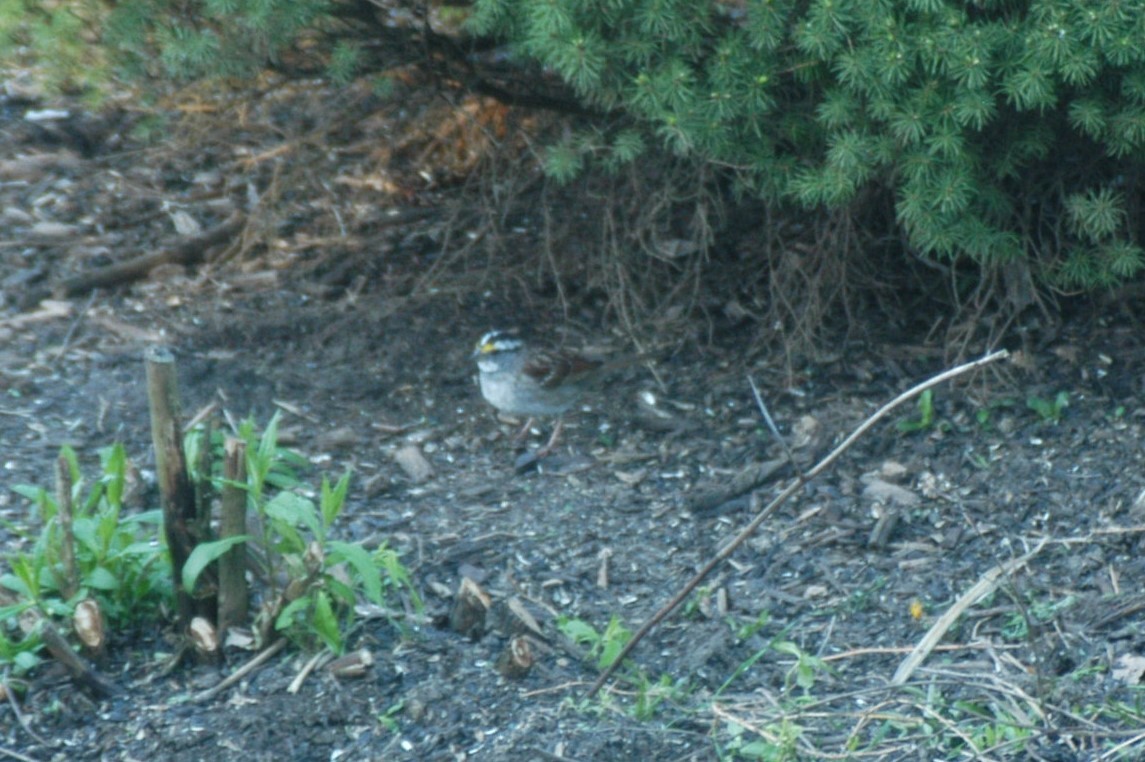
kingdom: Animalia
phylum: Chordata
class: Aves
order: Passeriformes
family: Passerellidae
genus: Zonotrichia
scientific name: Zonotrichia albicollis
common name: White-throated sparrow
